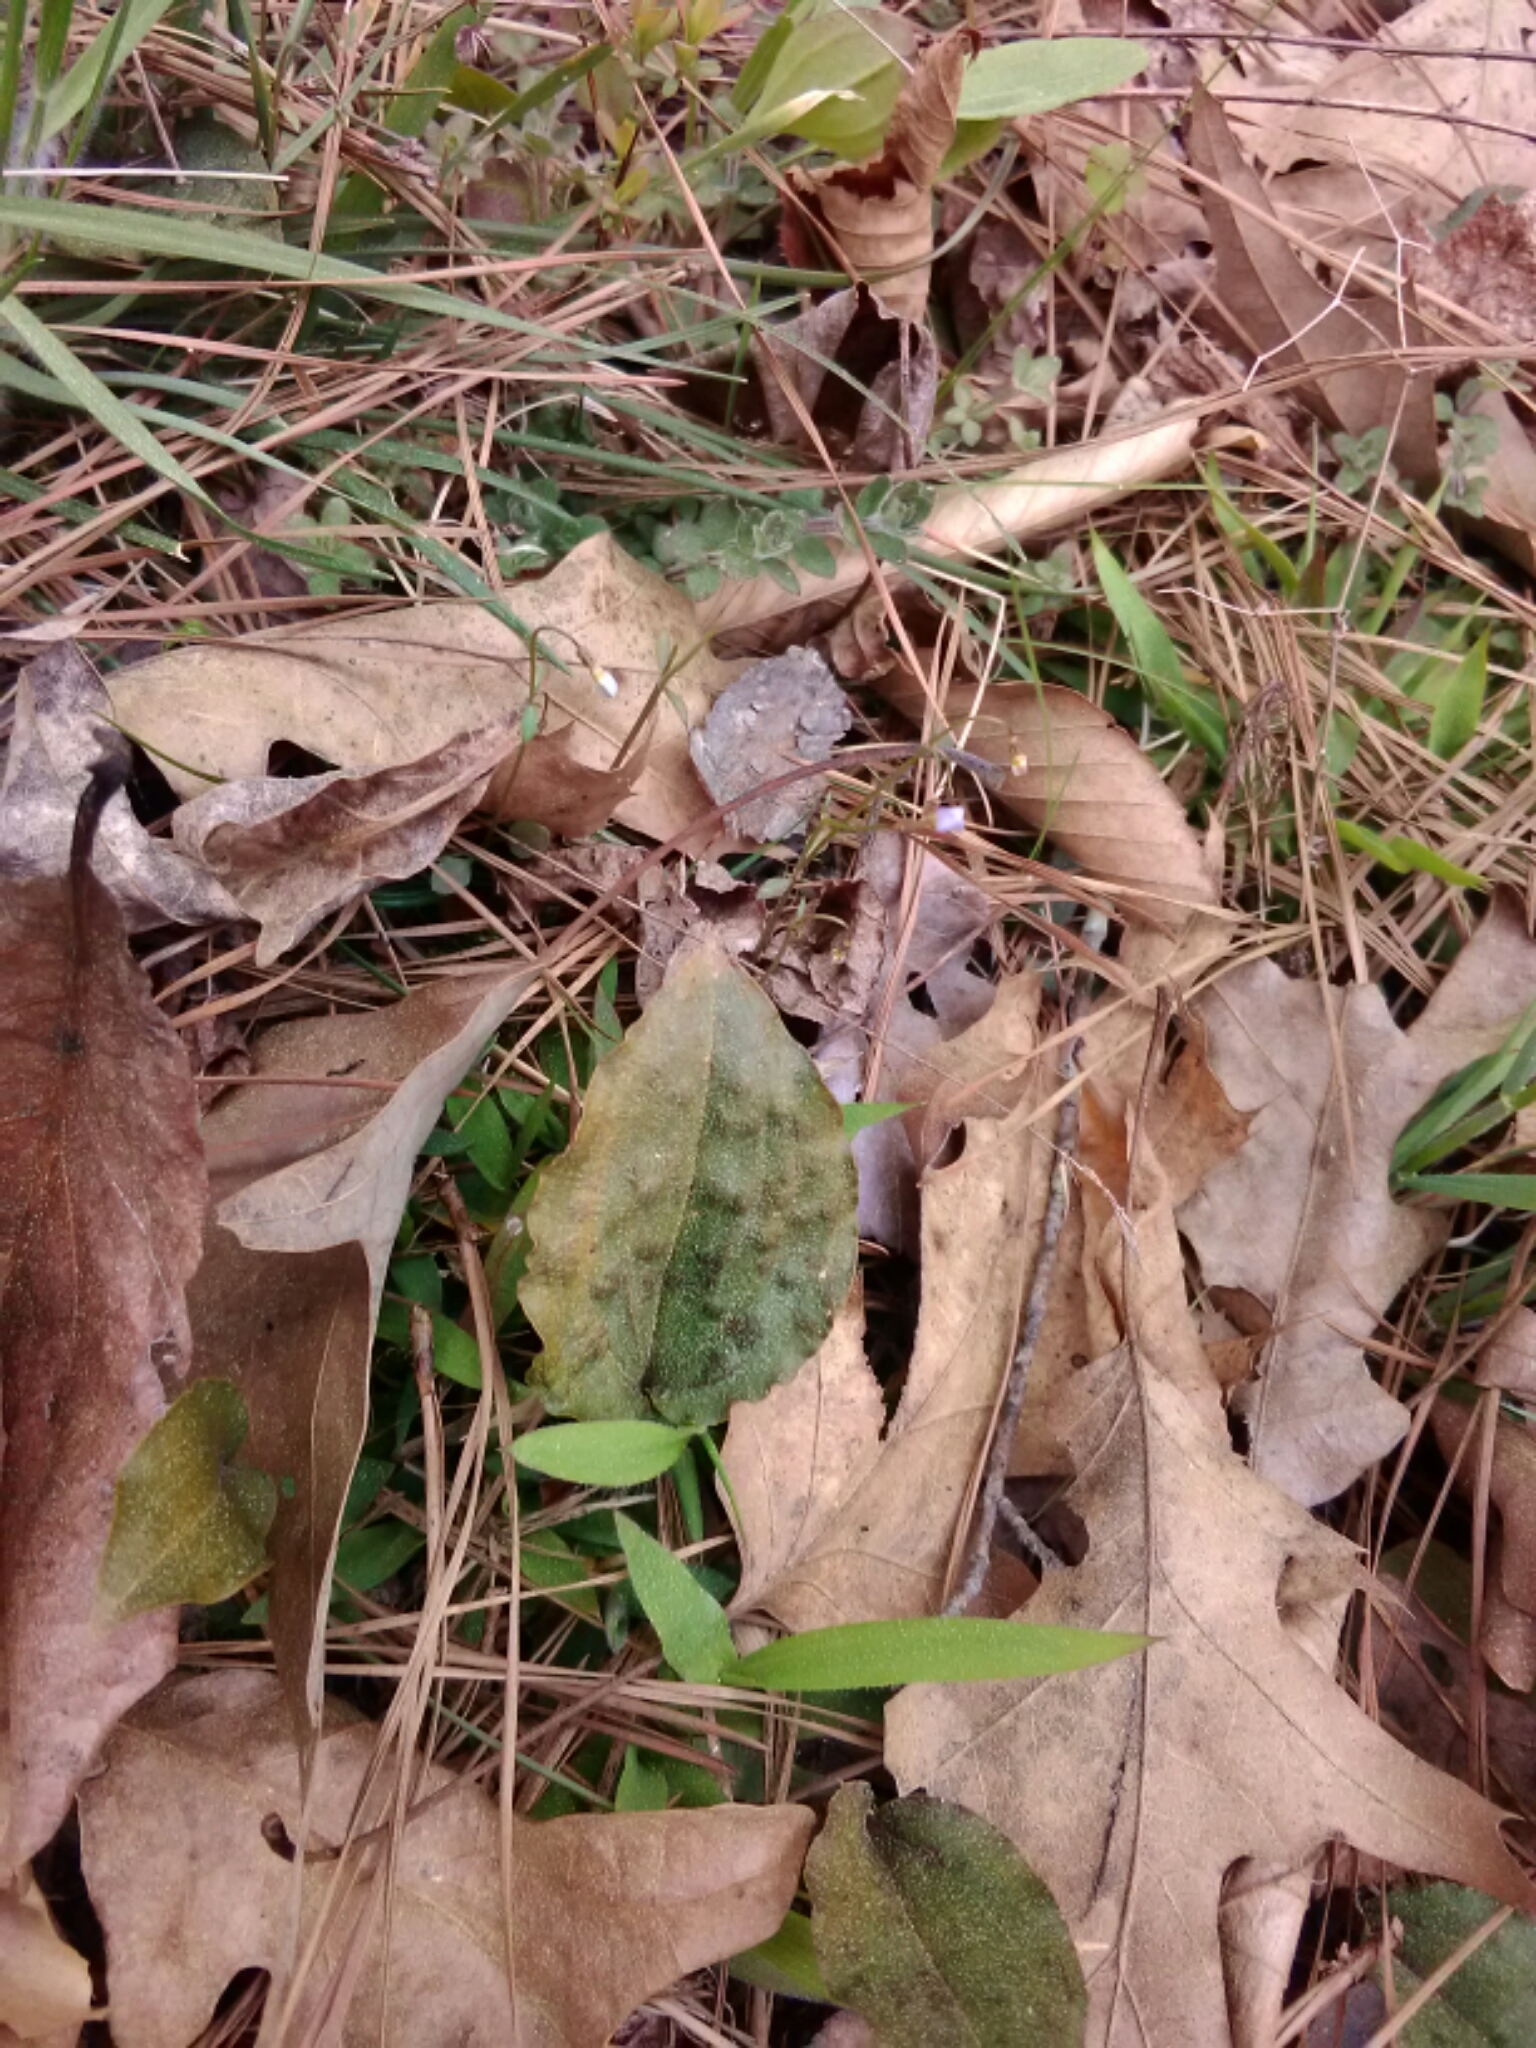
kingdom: Plantae
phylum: Tracheophyta
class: Liliopsida
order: Asparagales
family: Orchidaceae
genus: Tipularia
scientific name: Tipularia discolor
